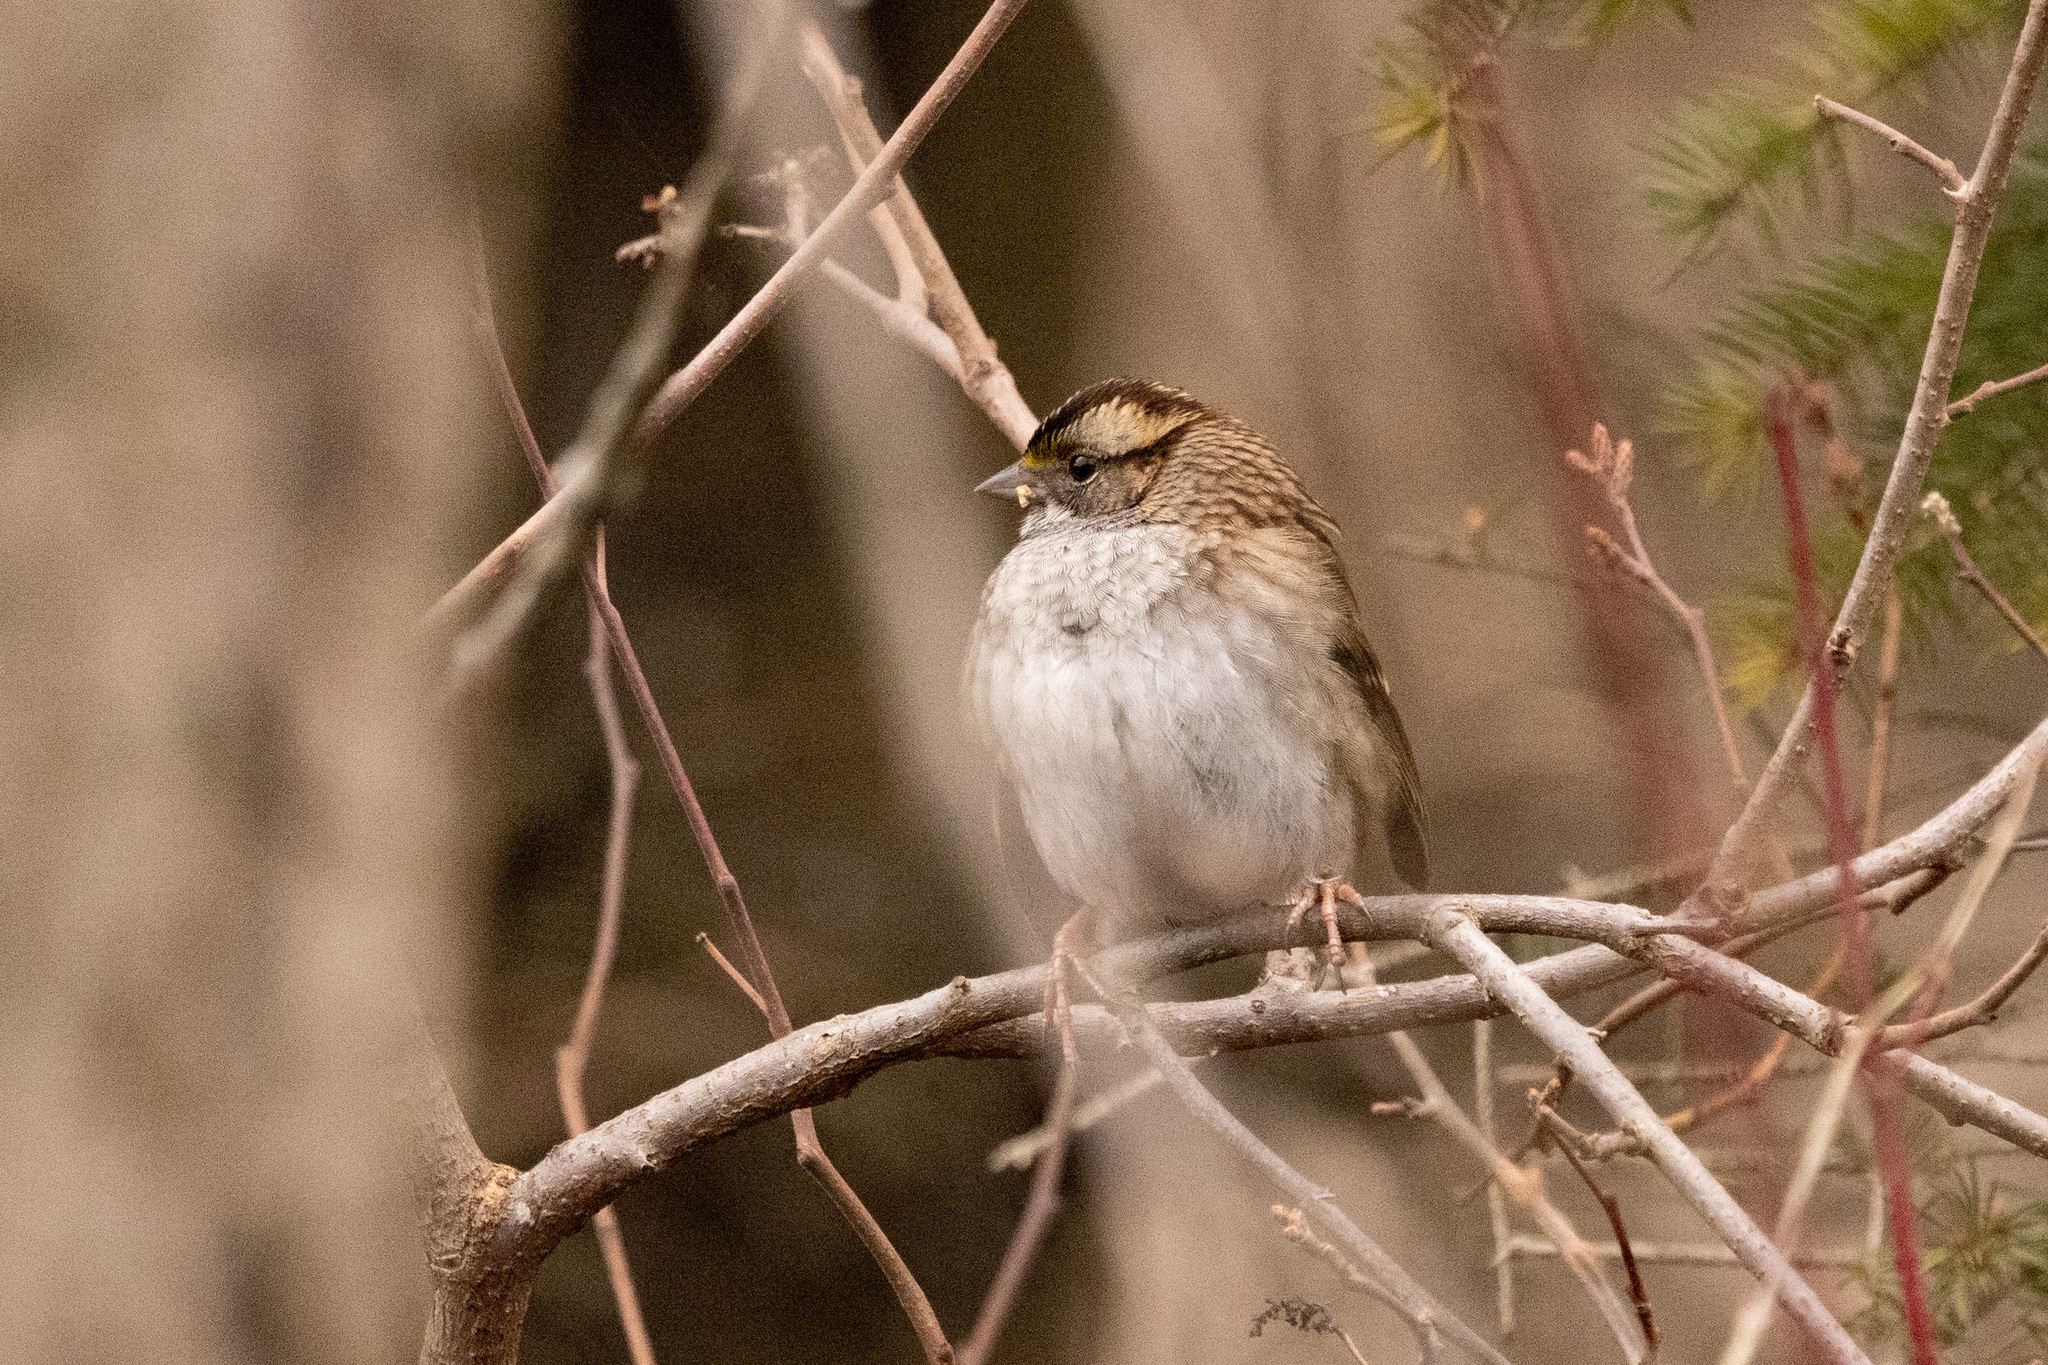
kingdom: Animalia
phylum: Chordata
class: Aves
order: Passeriformes
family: Passerellidae
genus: Zonotrichia
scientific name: Zonotrichia albicollis
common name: White-throated sparrow
